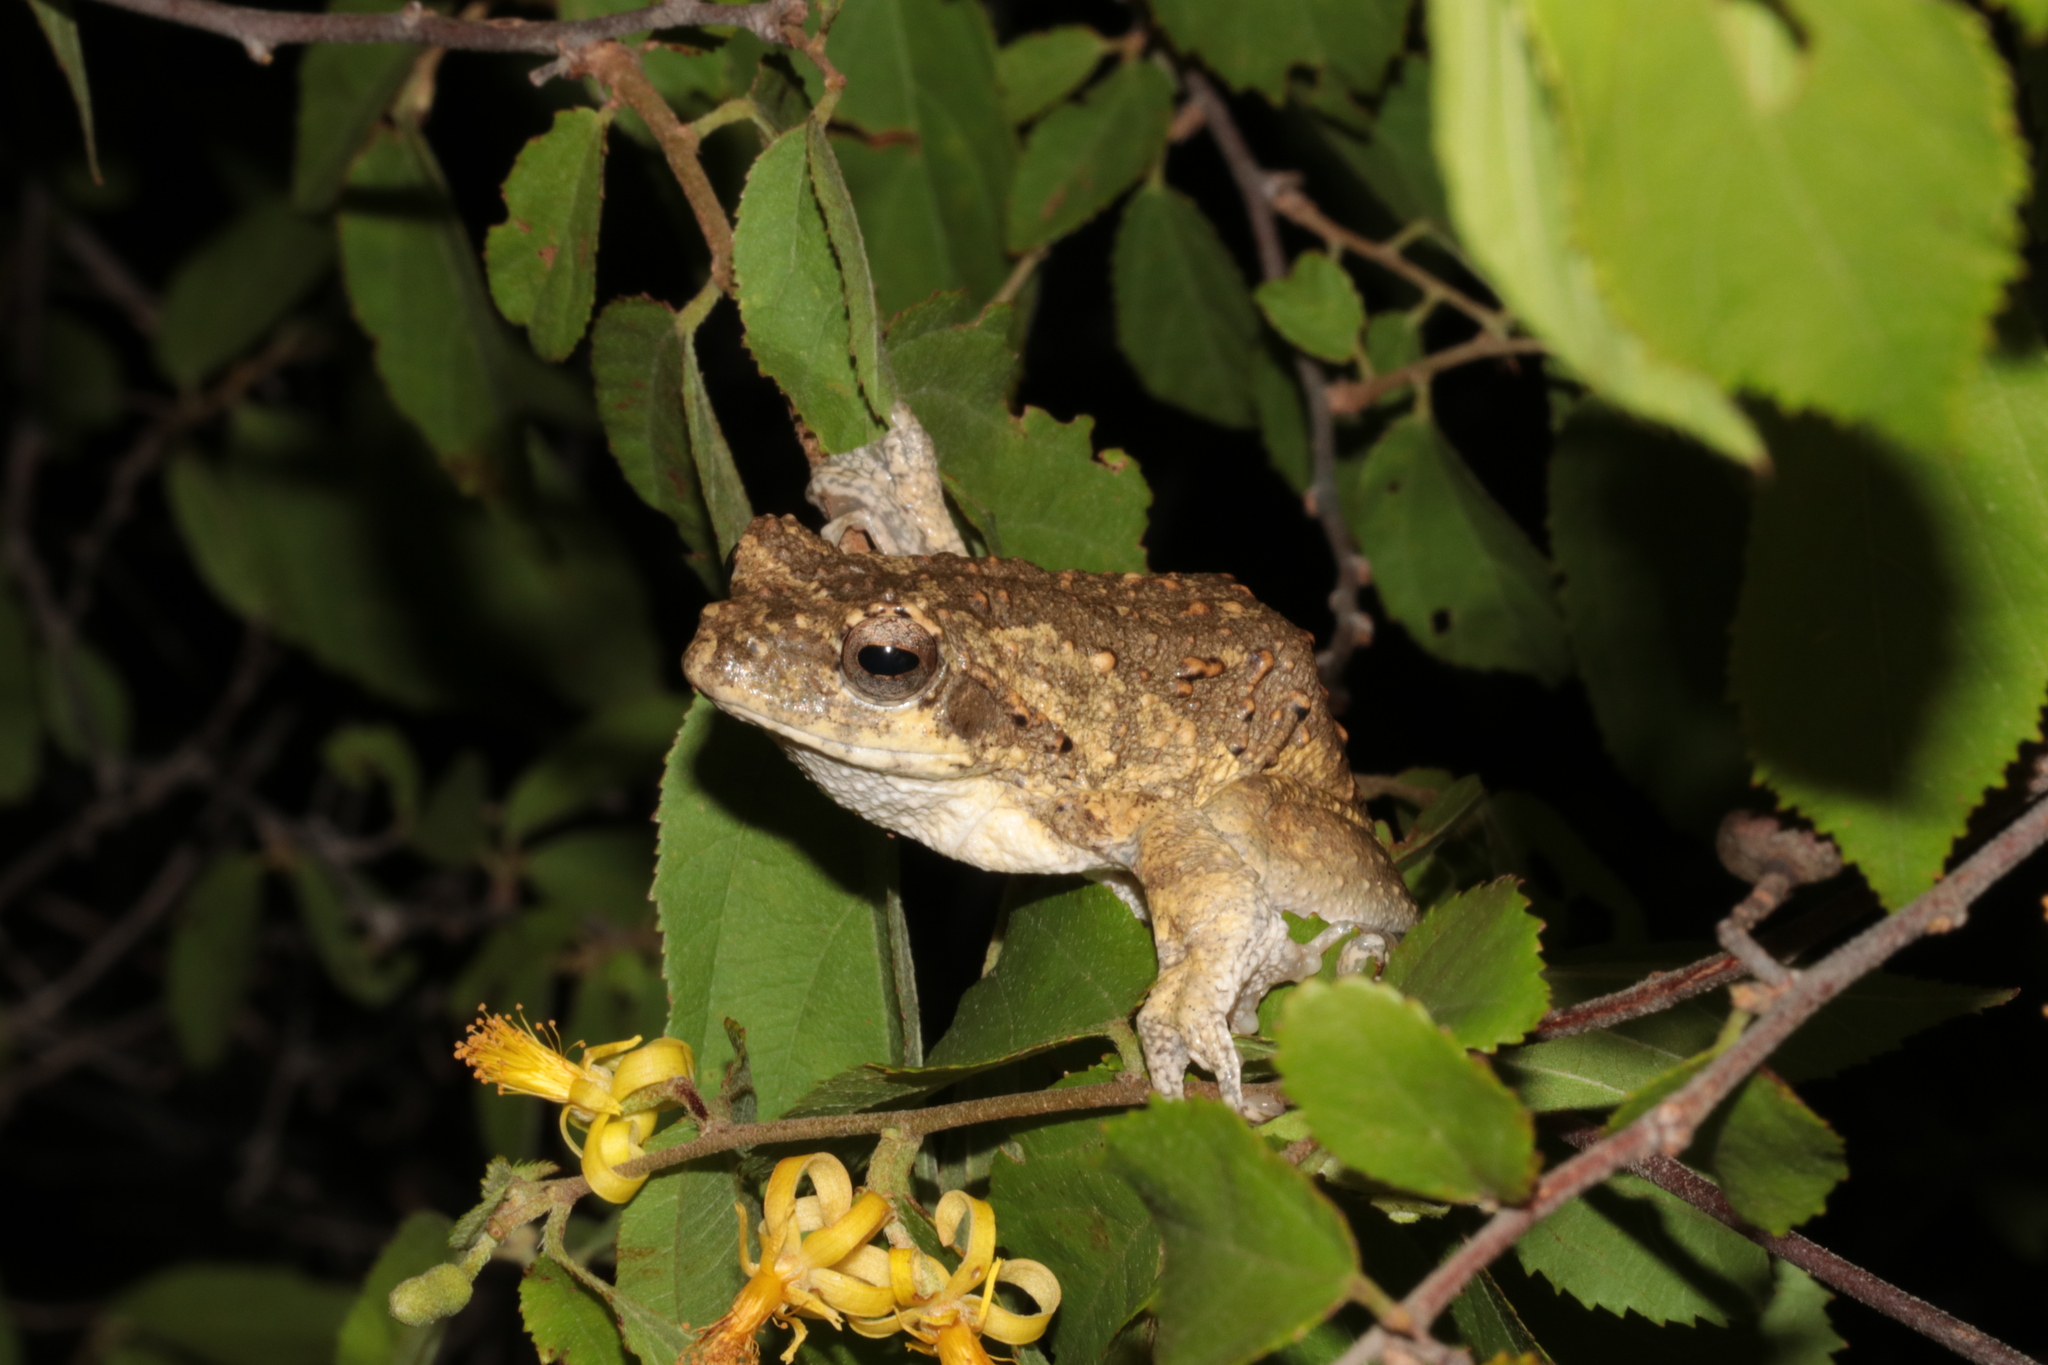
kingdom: Animalia
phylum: Chordata
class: Amphibia
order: Anura
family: Rhacophoridae
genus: Chiromantis
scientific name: Chiromantis xerampelina
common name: African gray treefrog
